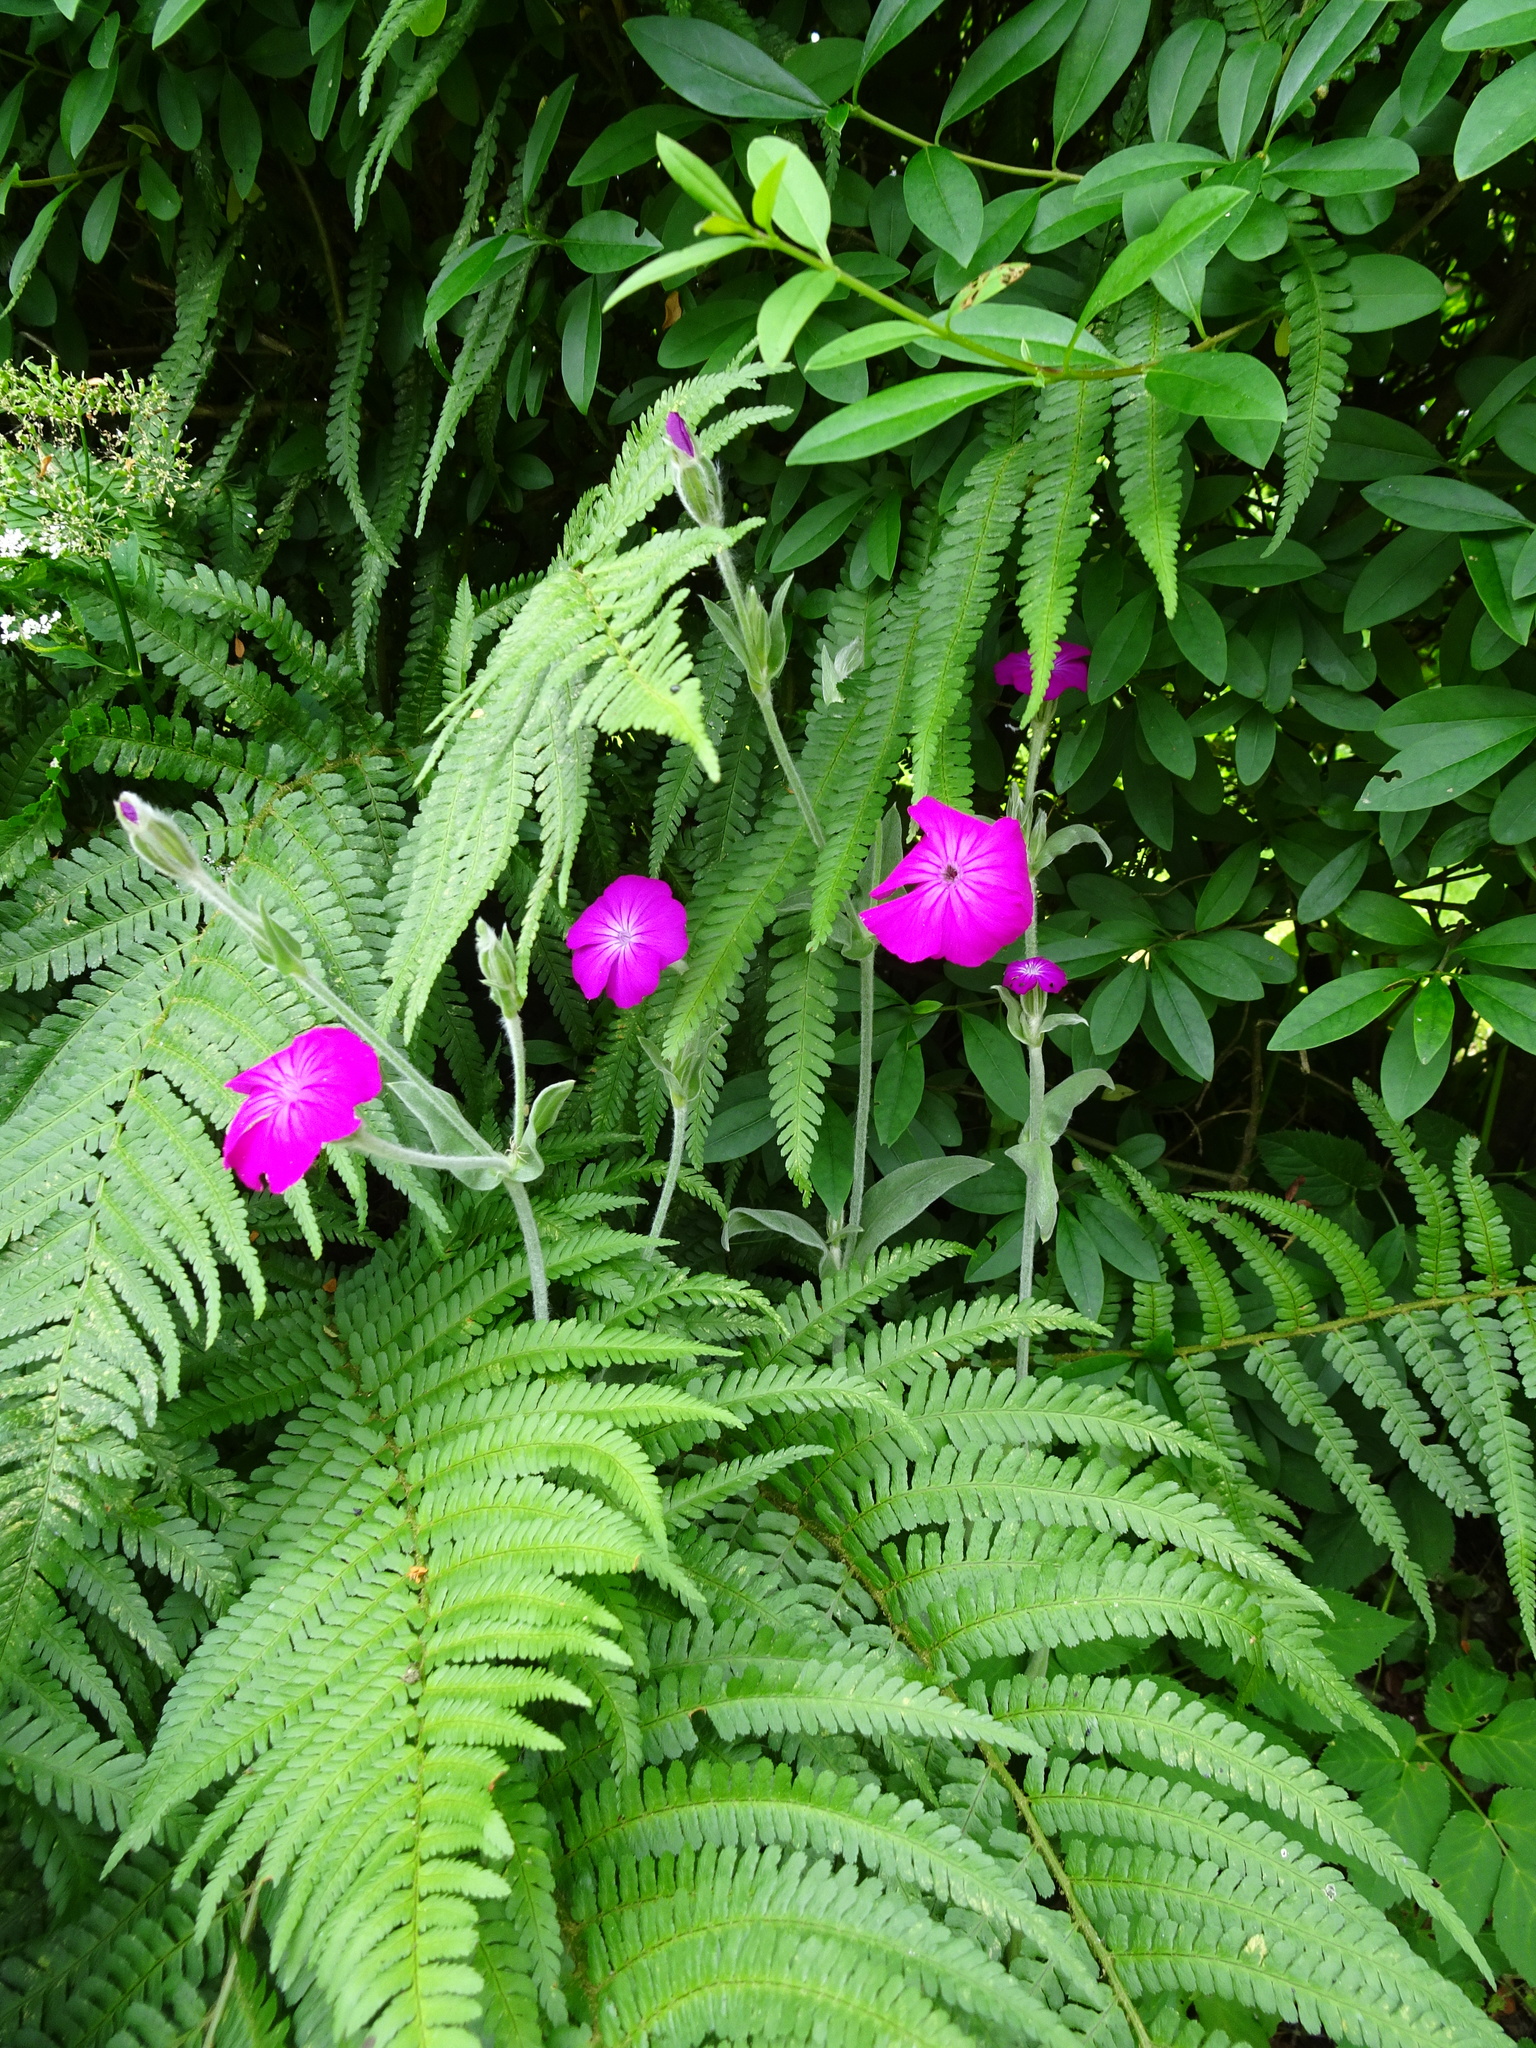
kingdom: Plantae
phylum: Tracheophyta
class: Magnoliopsida
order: Caryophyllales
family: Caryophyllaceae
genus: Silene
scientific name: Silene coronaria
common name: Rose campion
